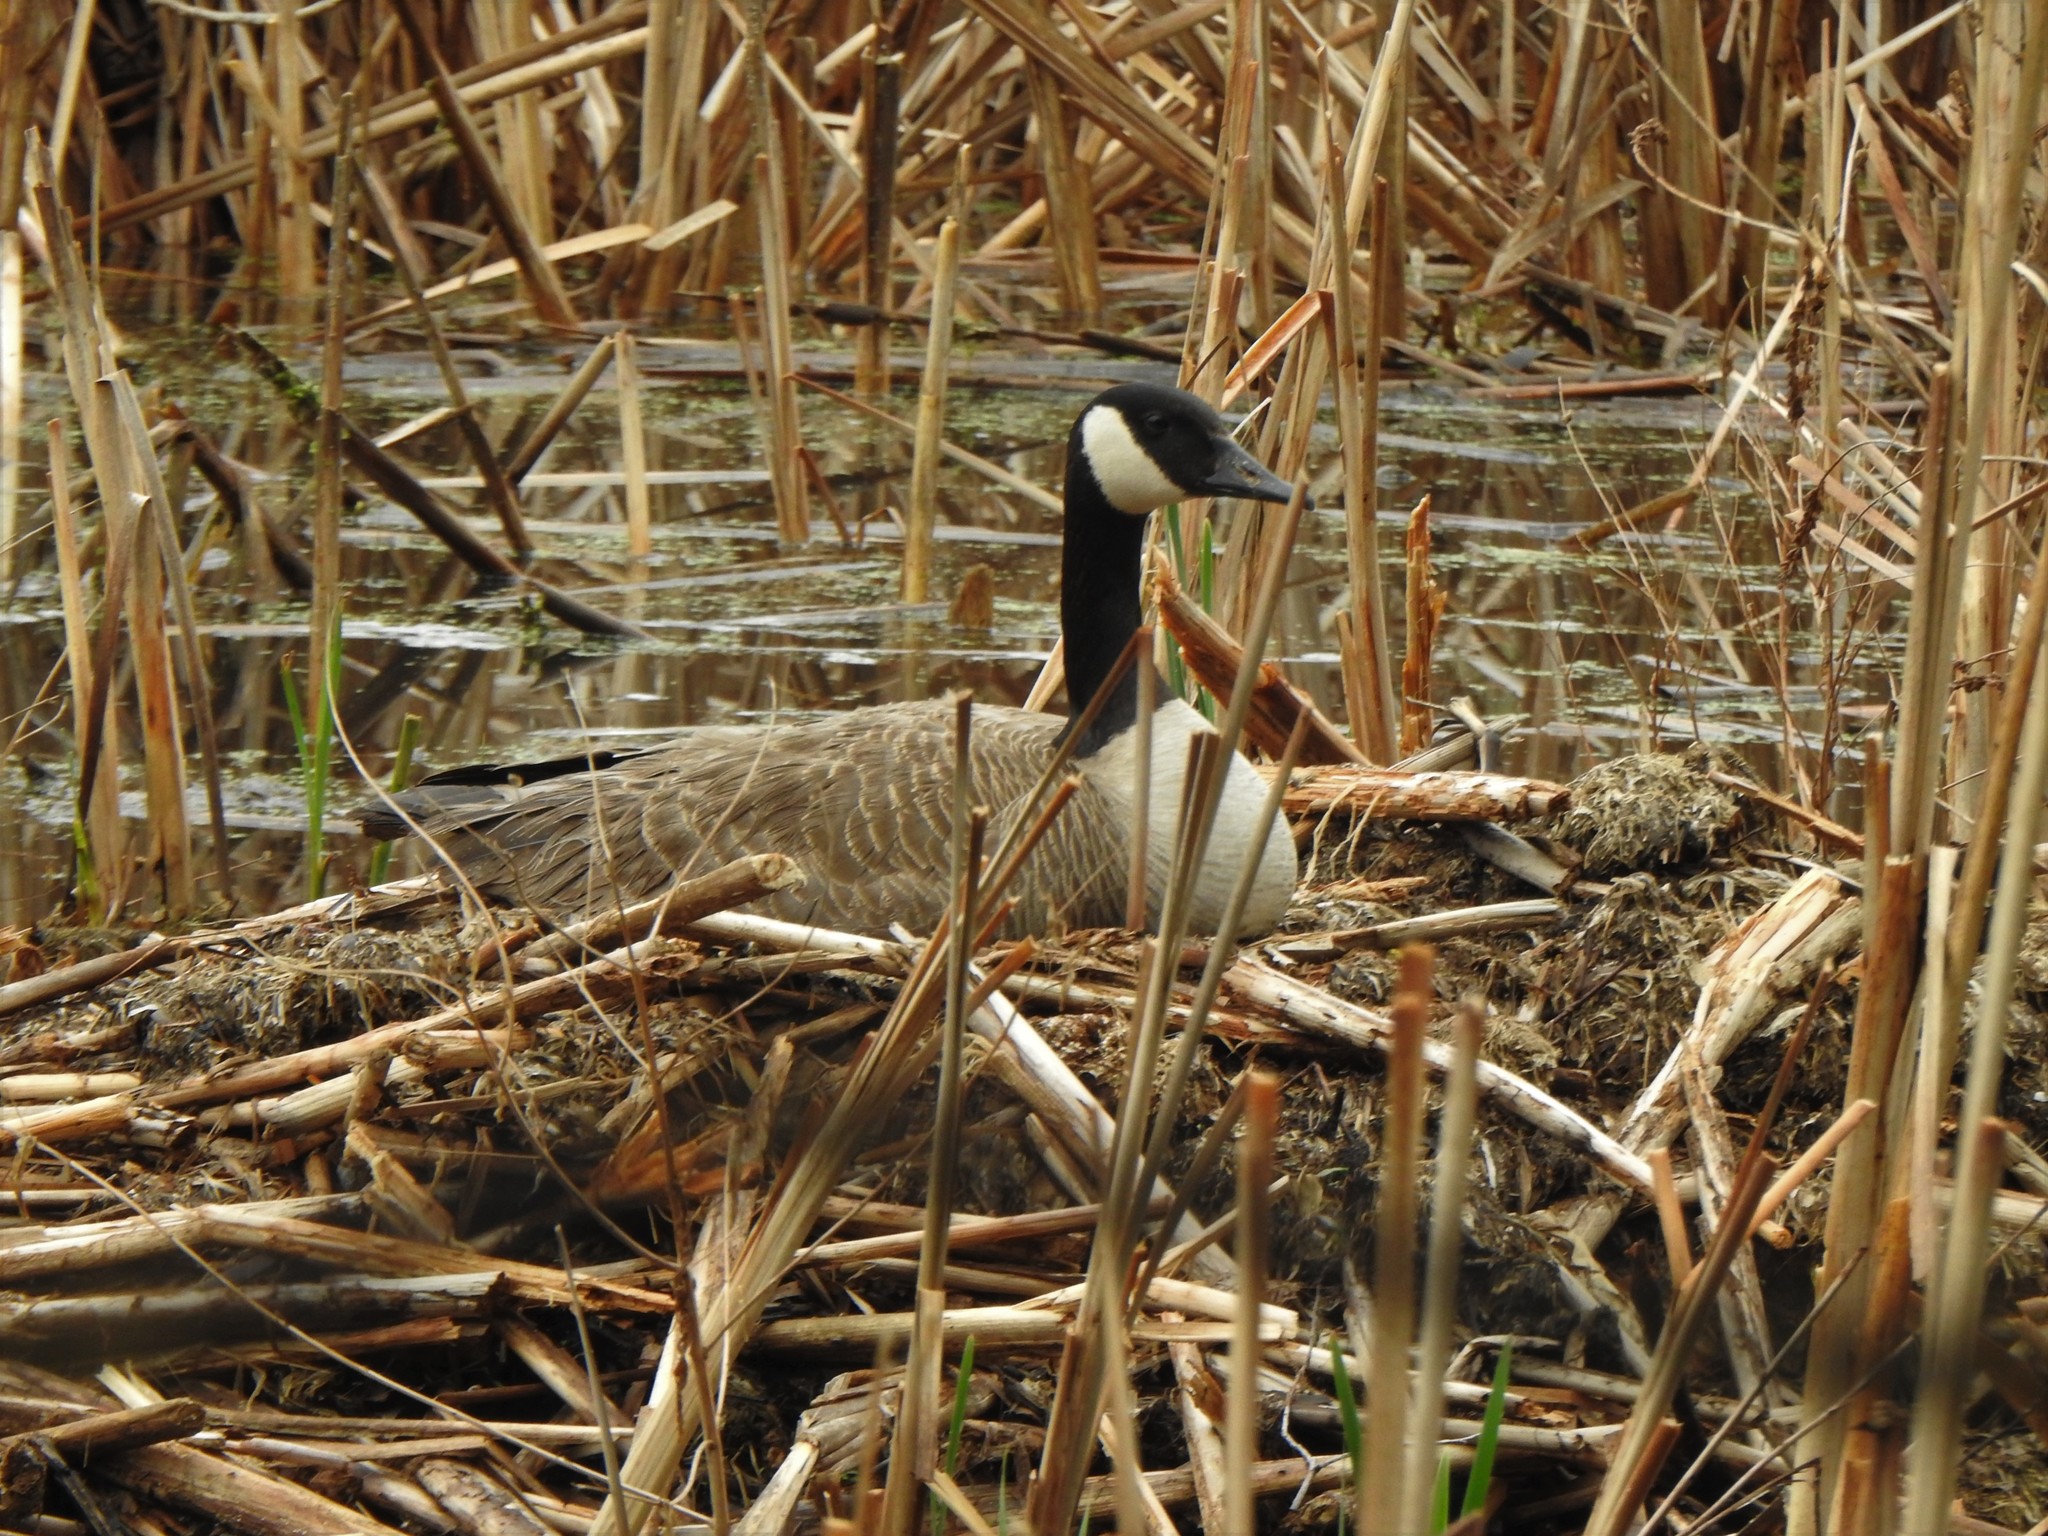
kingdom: Animalia
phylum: Chordata
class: Aves
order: Anseriformes
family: Anatidae
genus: Branta
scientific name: Branta canadensis
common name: Canada goose
